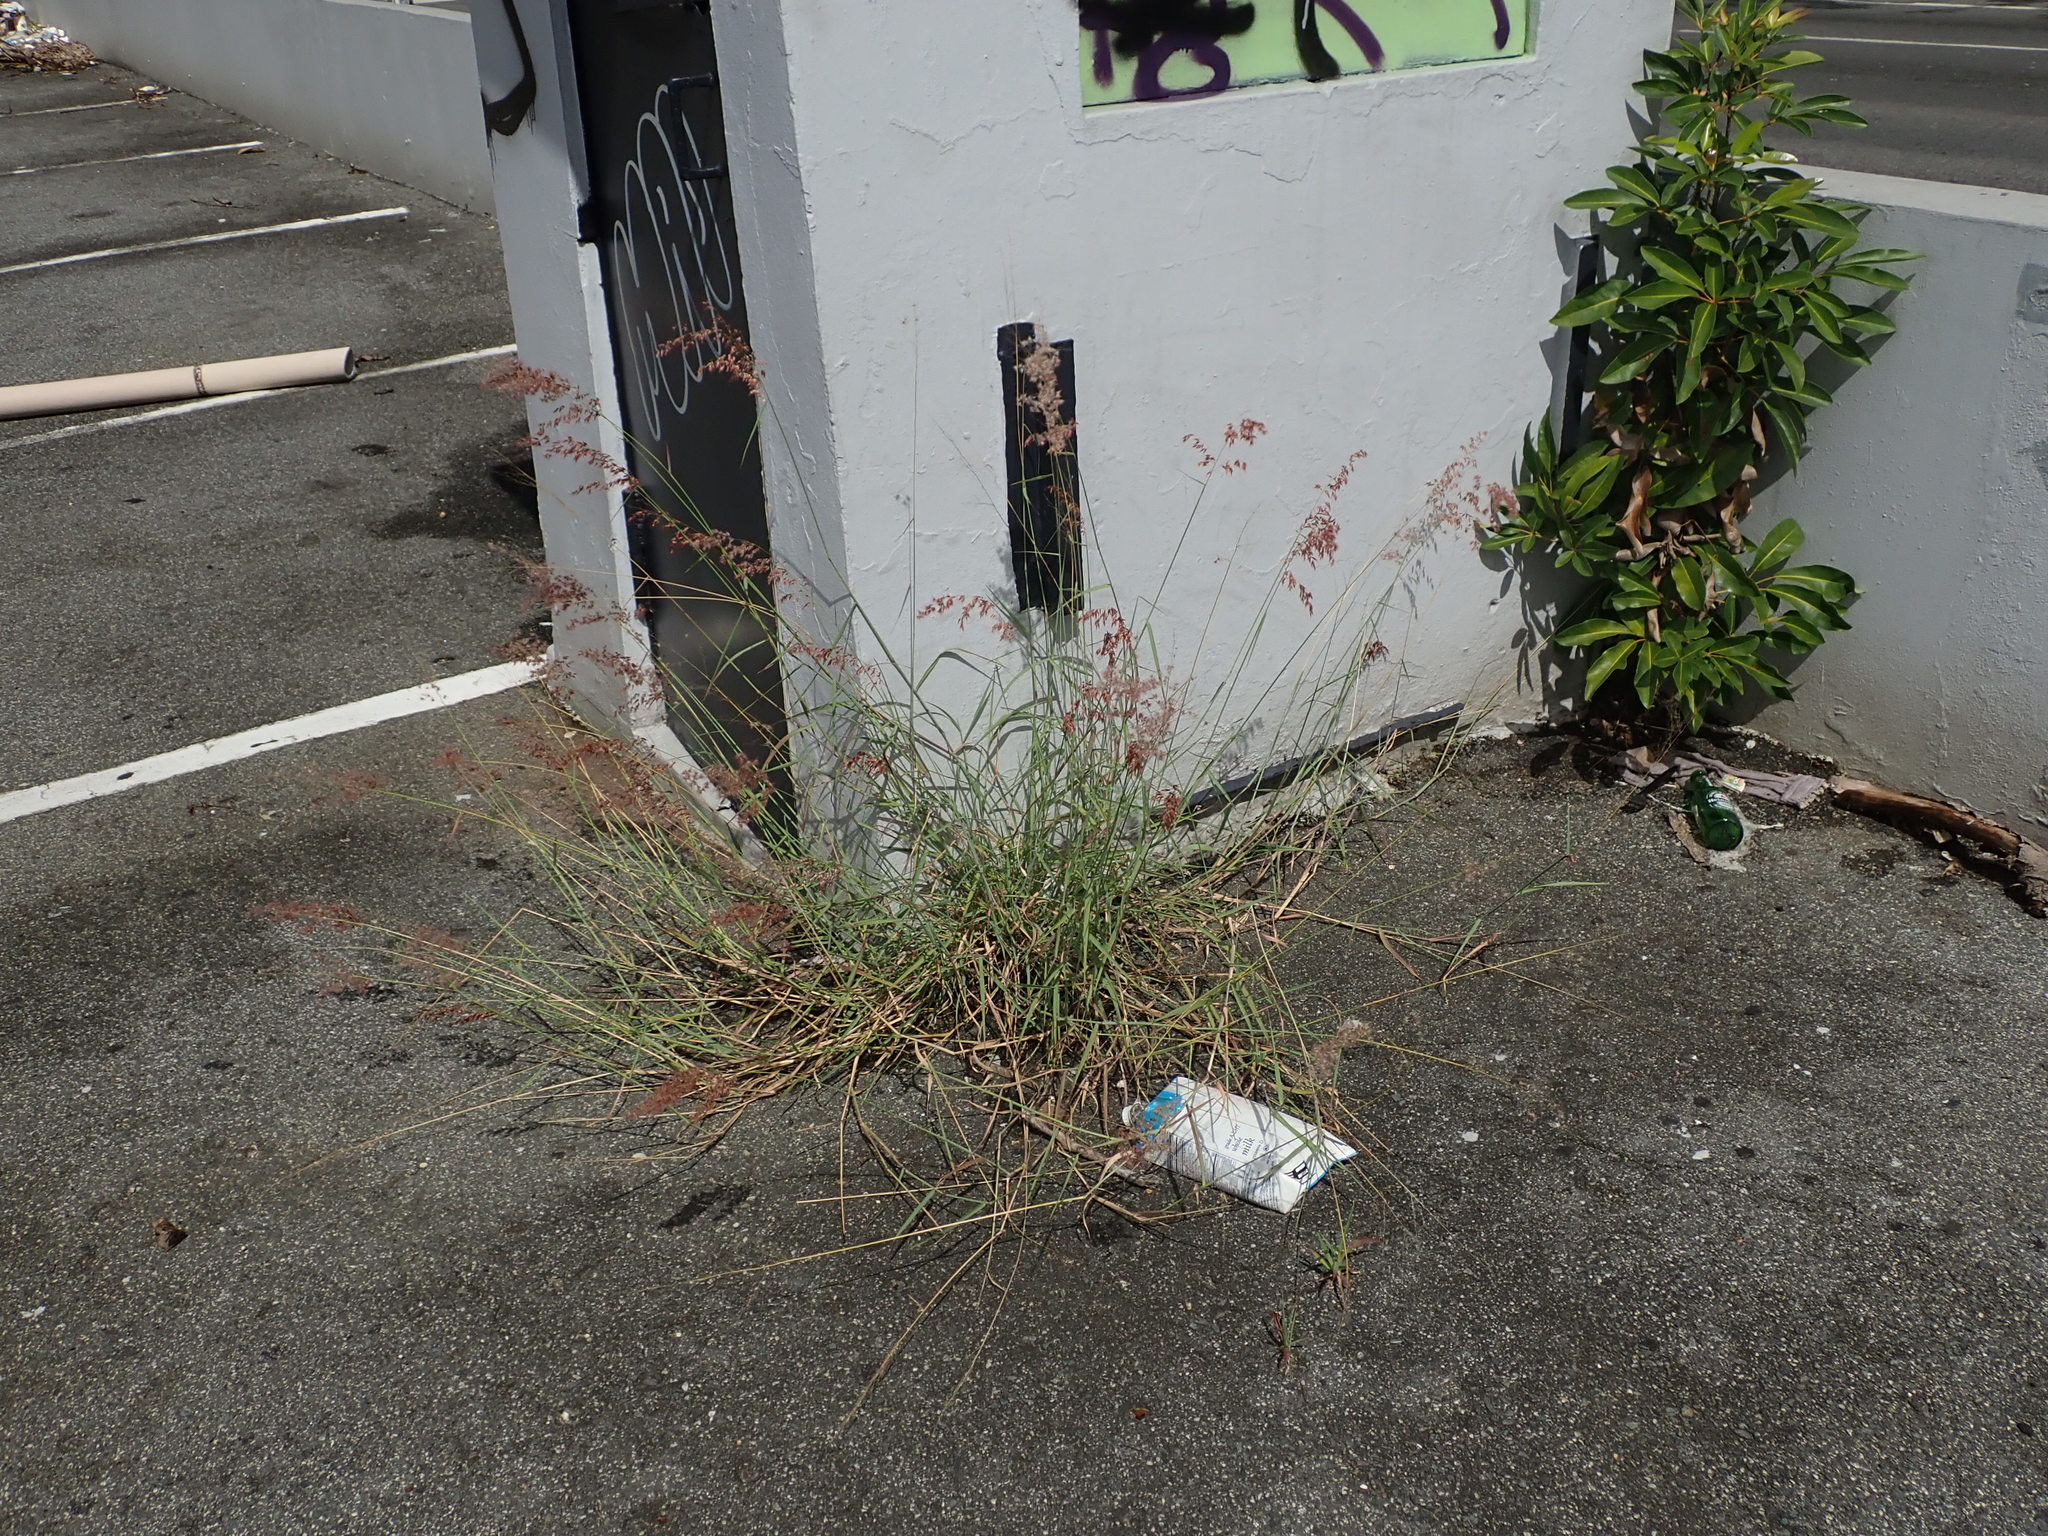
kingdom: Plantae
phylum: Tracheophyta
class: Liliopsida
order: Poales
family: Poaceae
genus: Melinis
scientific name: Melinis repens
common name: Rose natal grass
